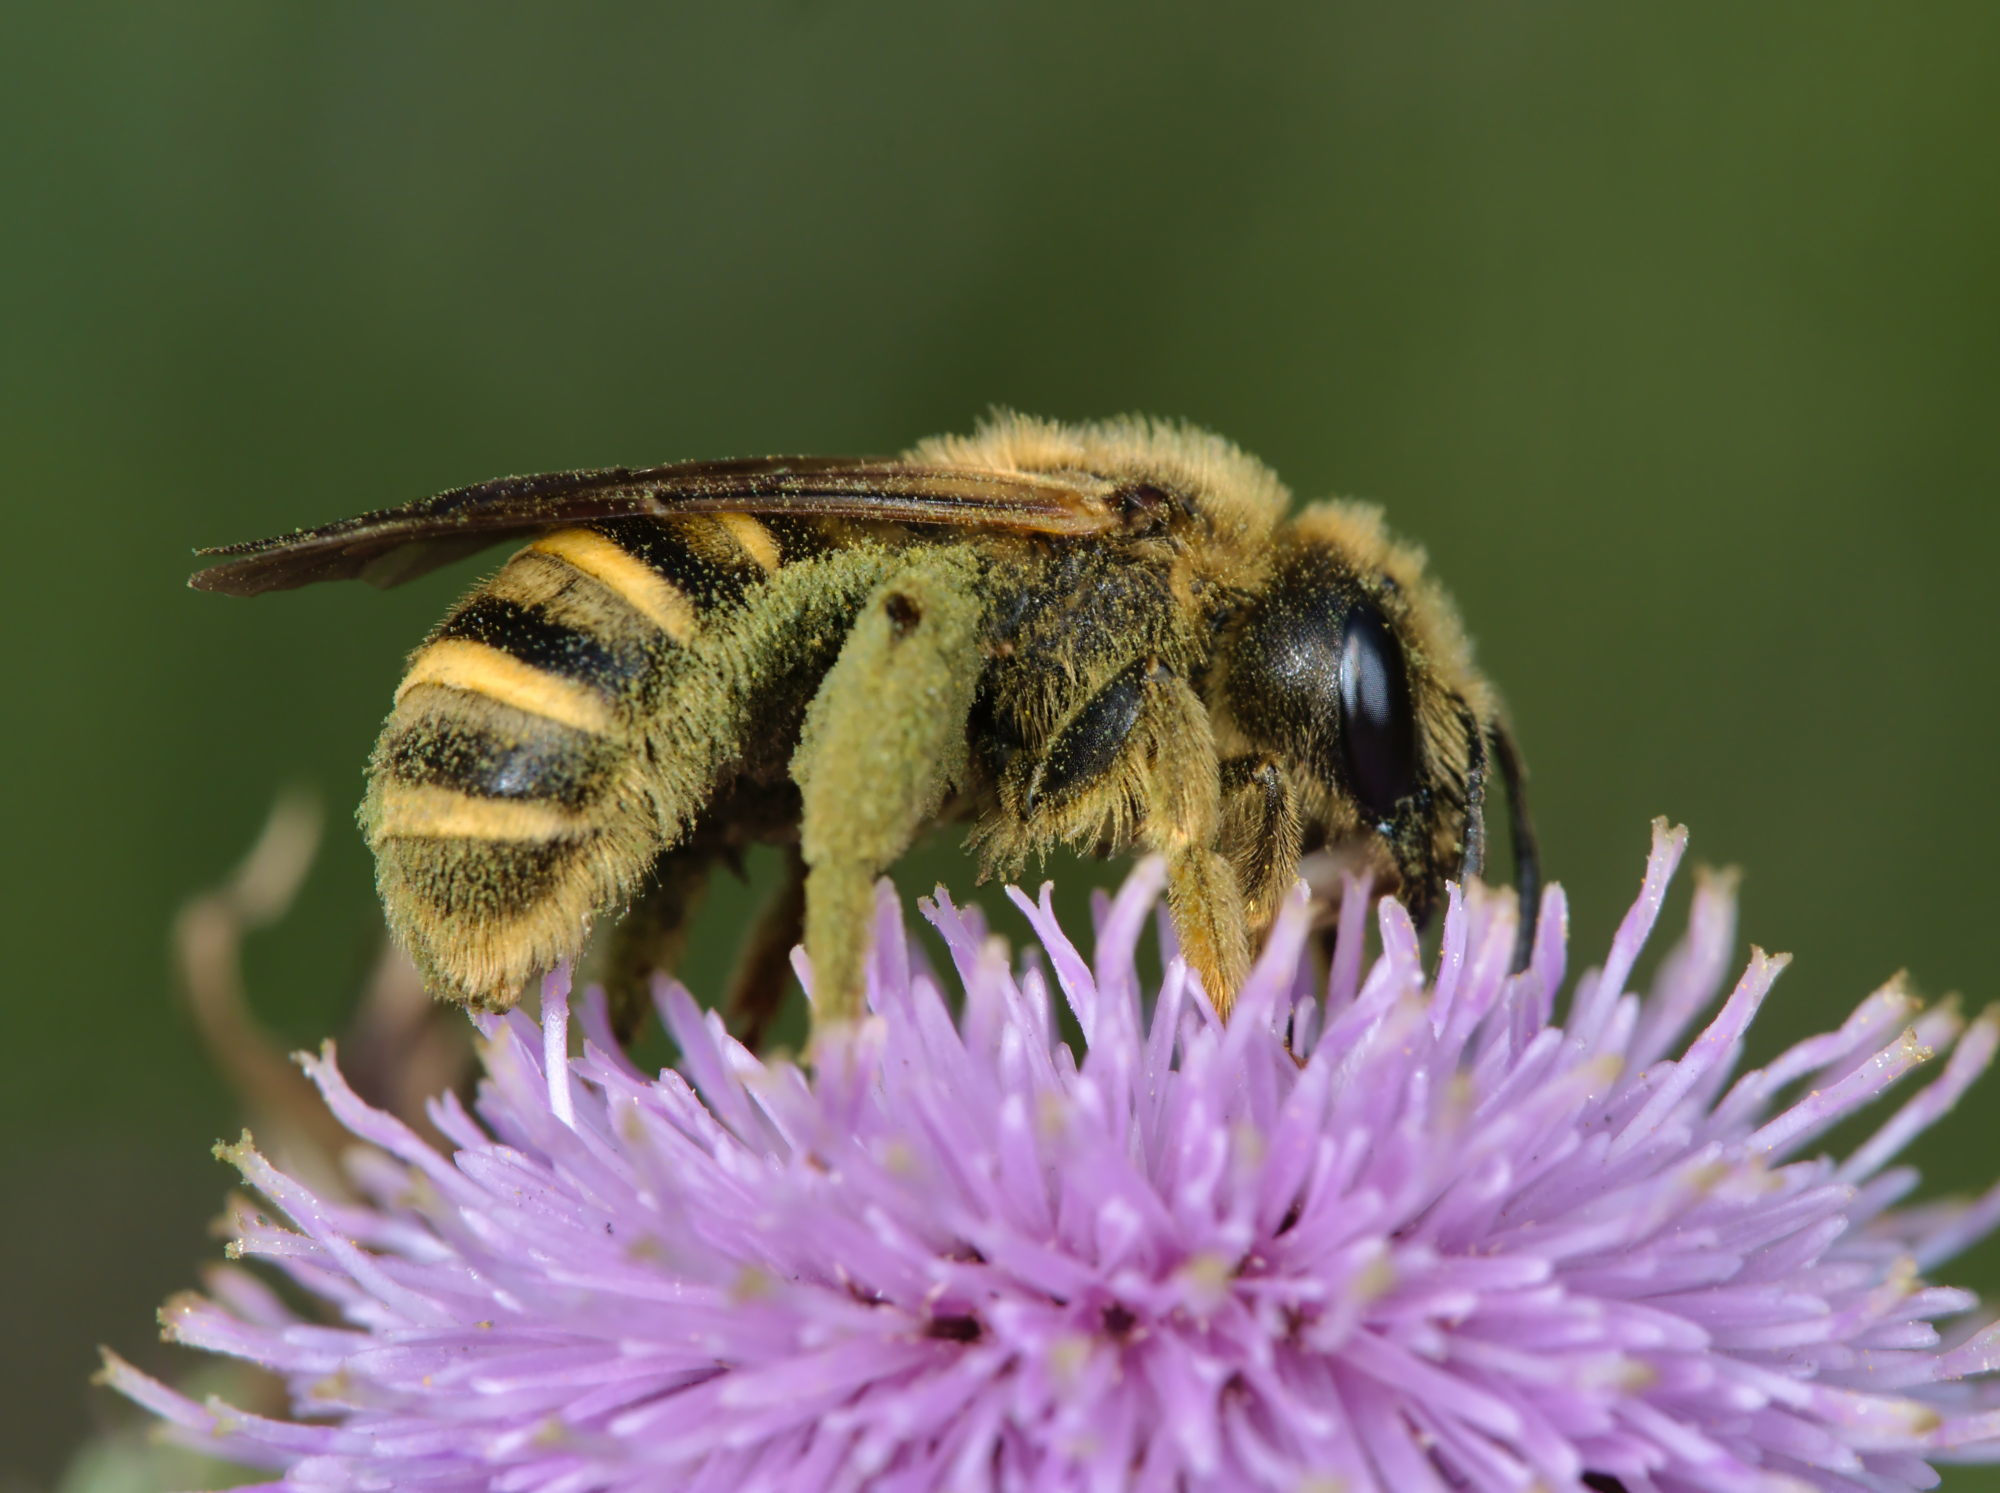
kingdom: Animalia
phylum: Arthropoda
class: Insecta
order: Hymenoptera
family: Halictidae
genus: Halictus
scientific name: Halictus scabiosae
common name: Great banded furrow bee
